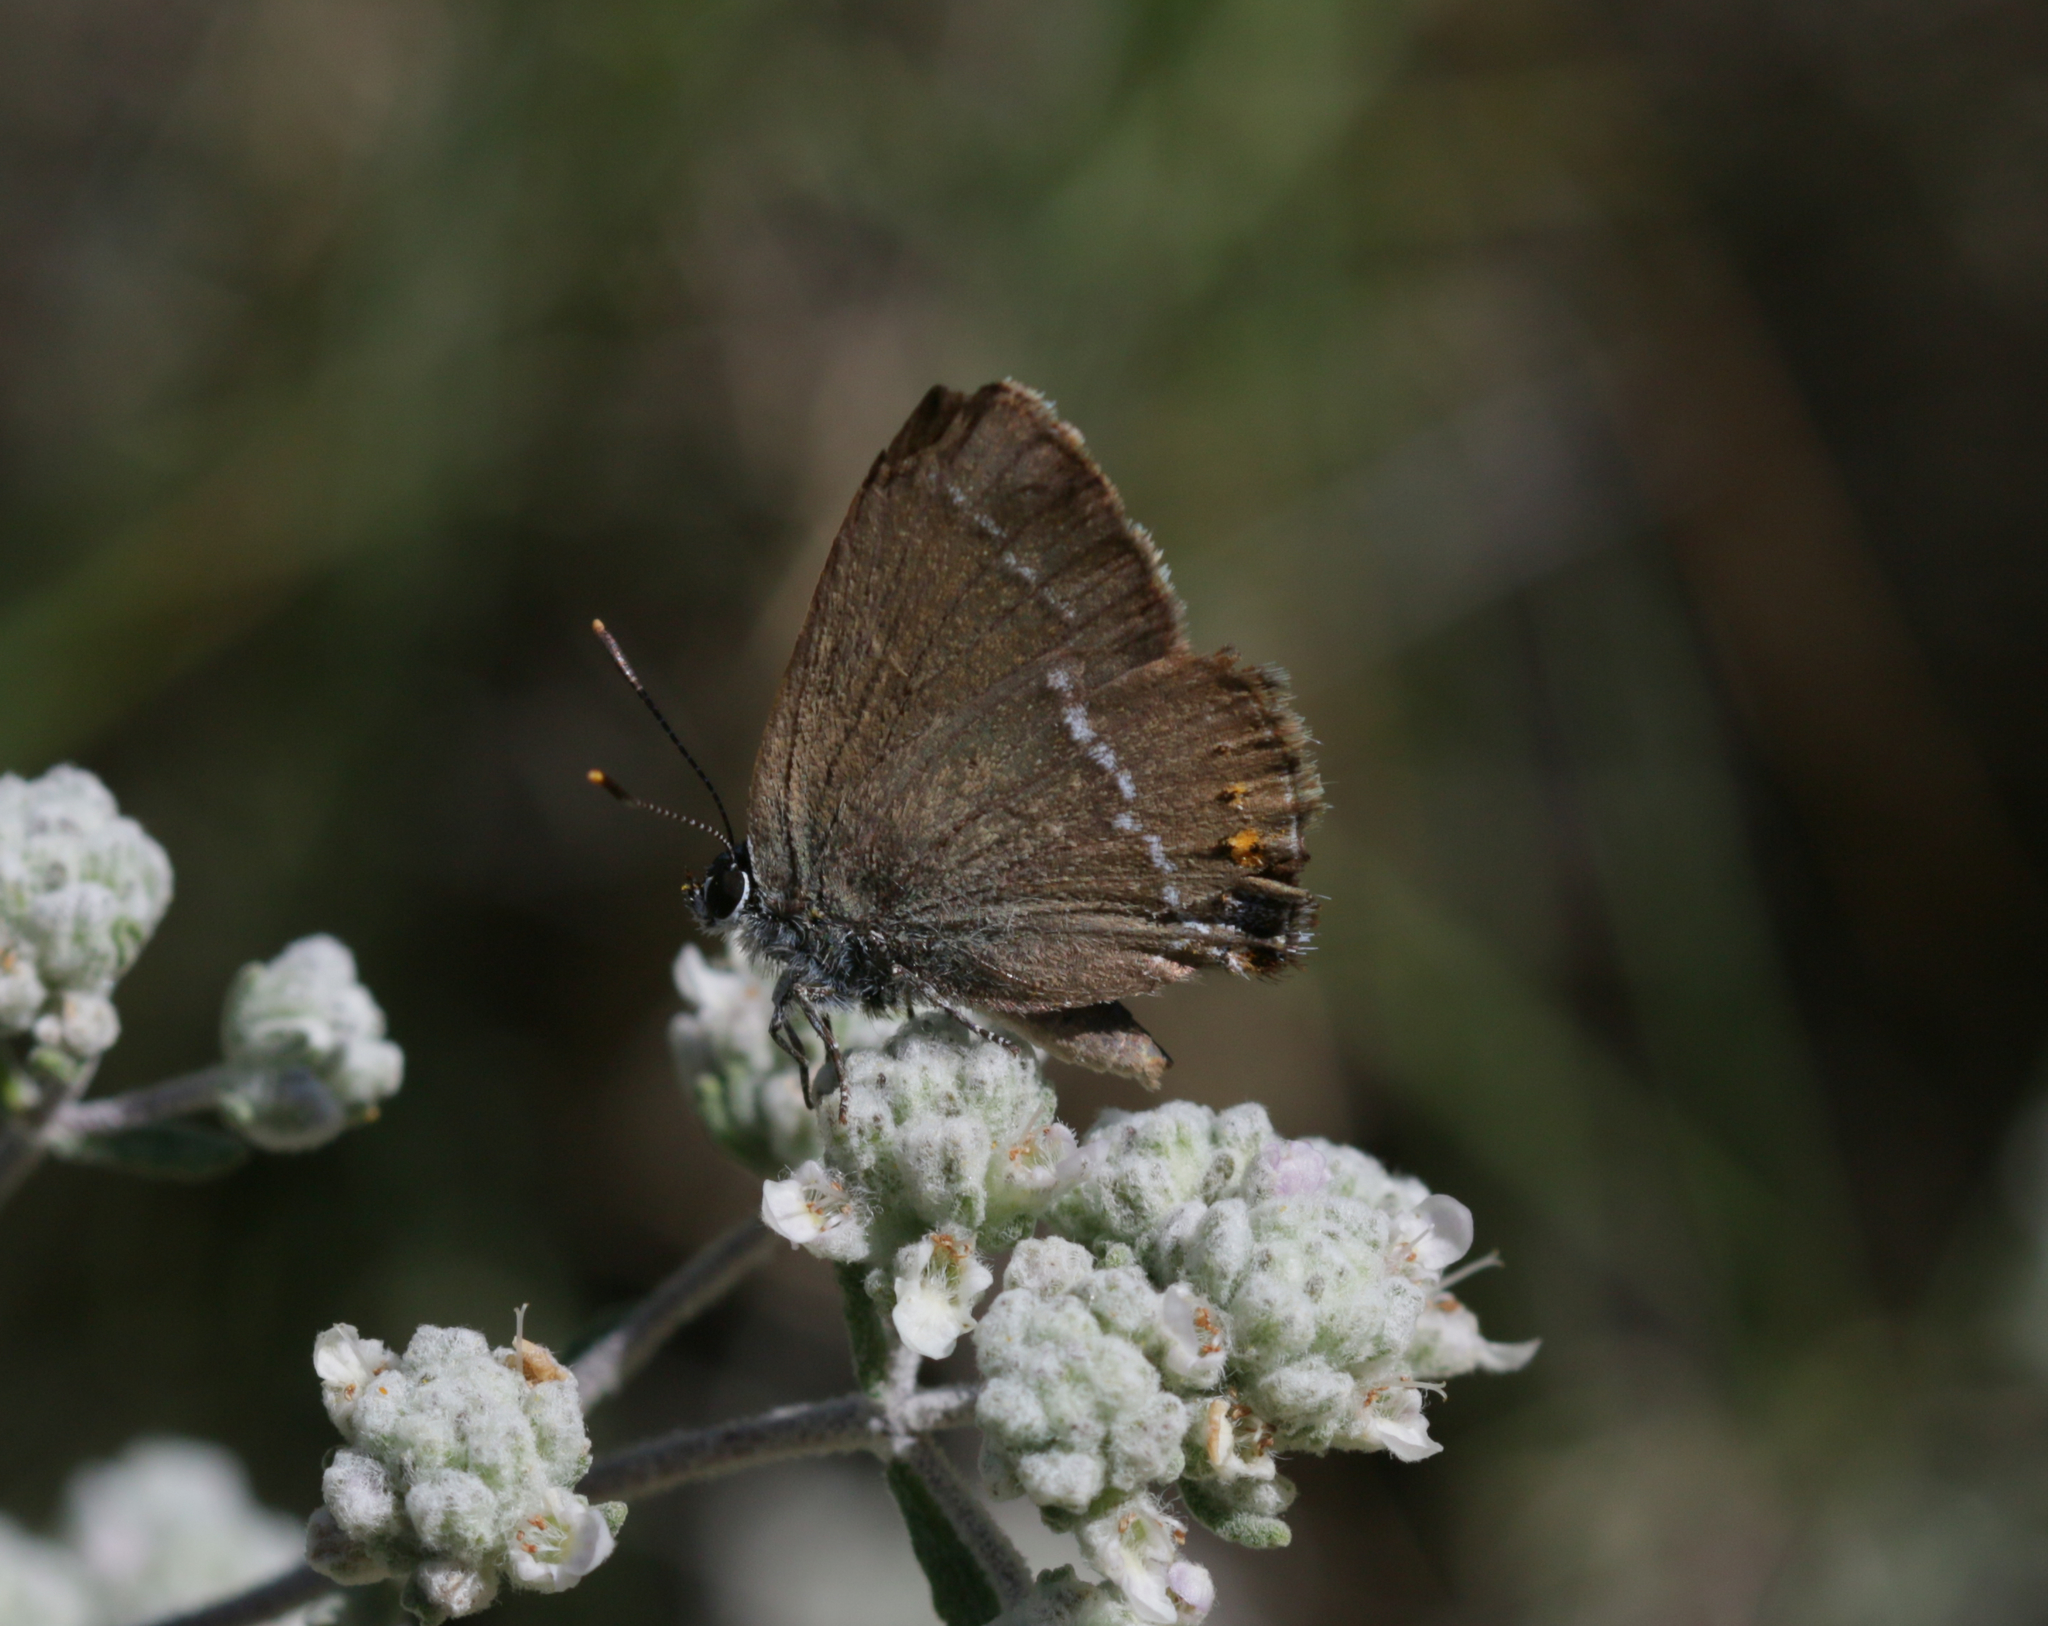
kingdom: Animalia
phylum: Arthropoda
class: Insecta
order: Lepidoptera
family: Lycaenidae
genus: Tuttiola
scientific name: Tuttiola spini
